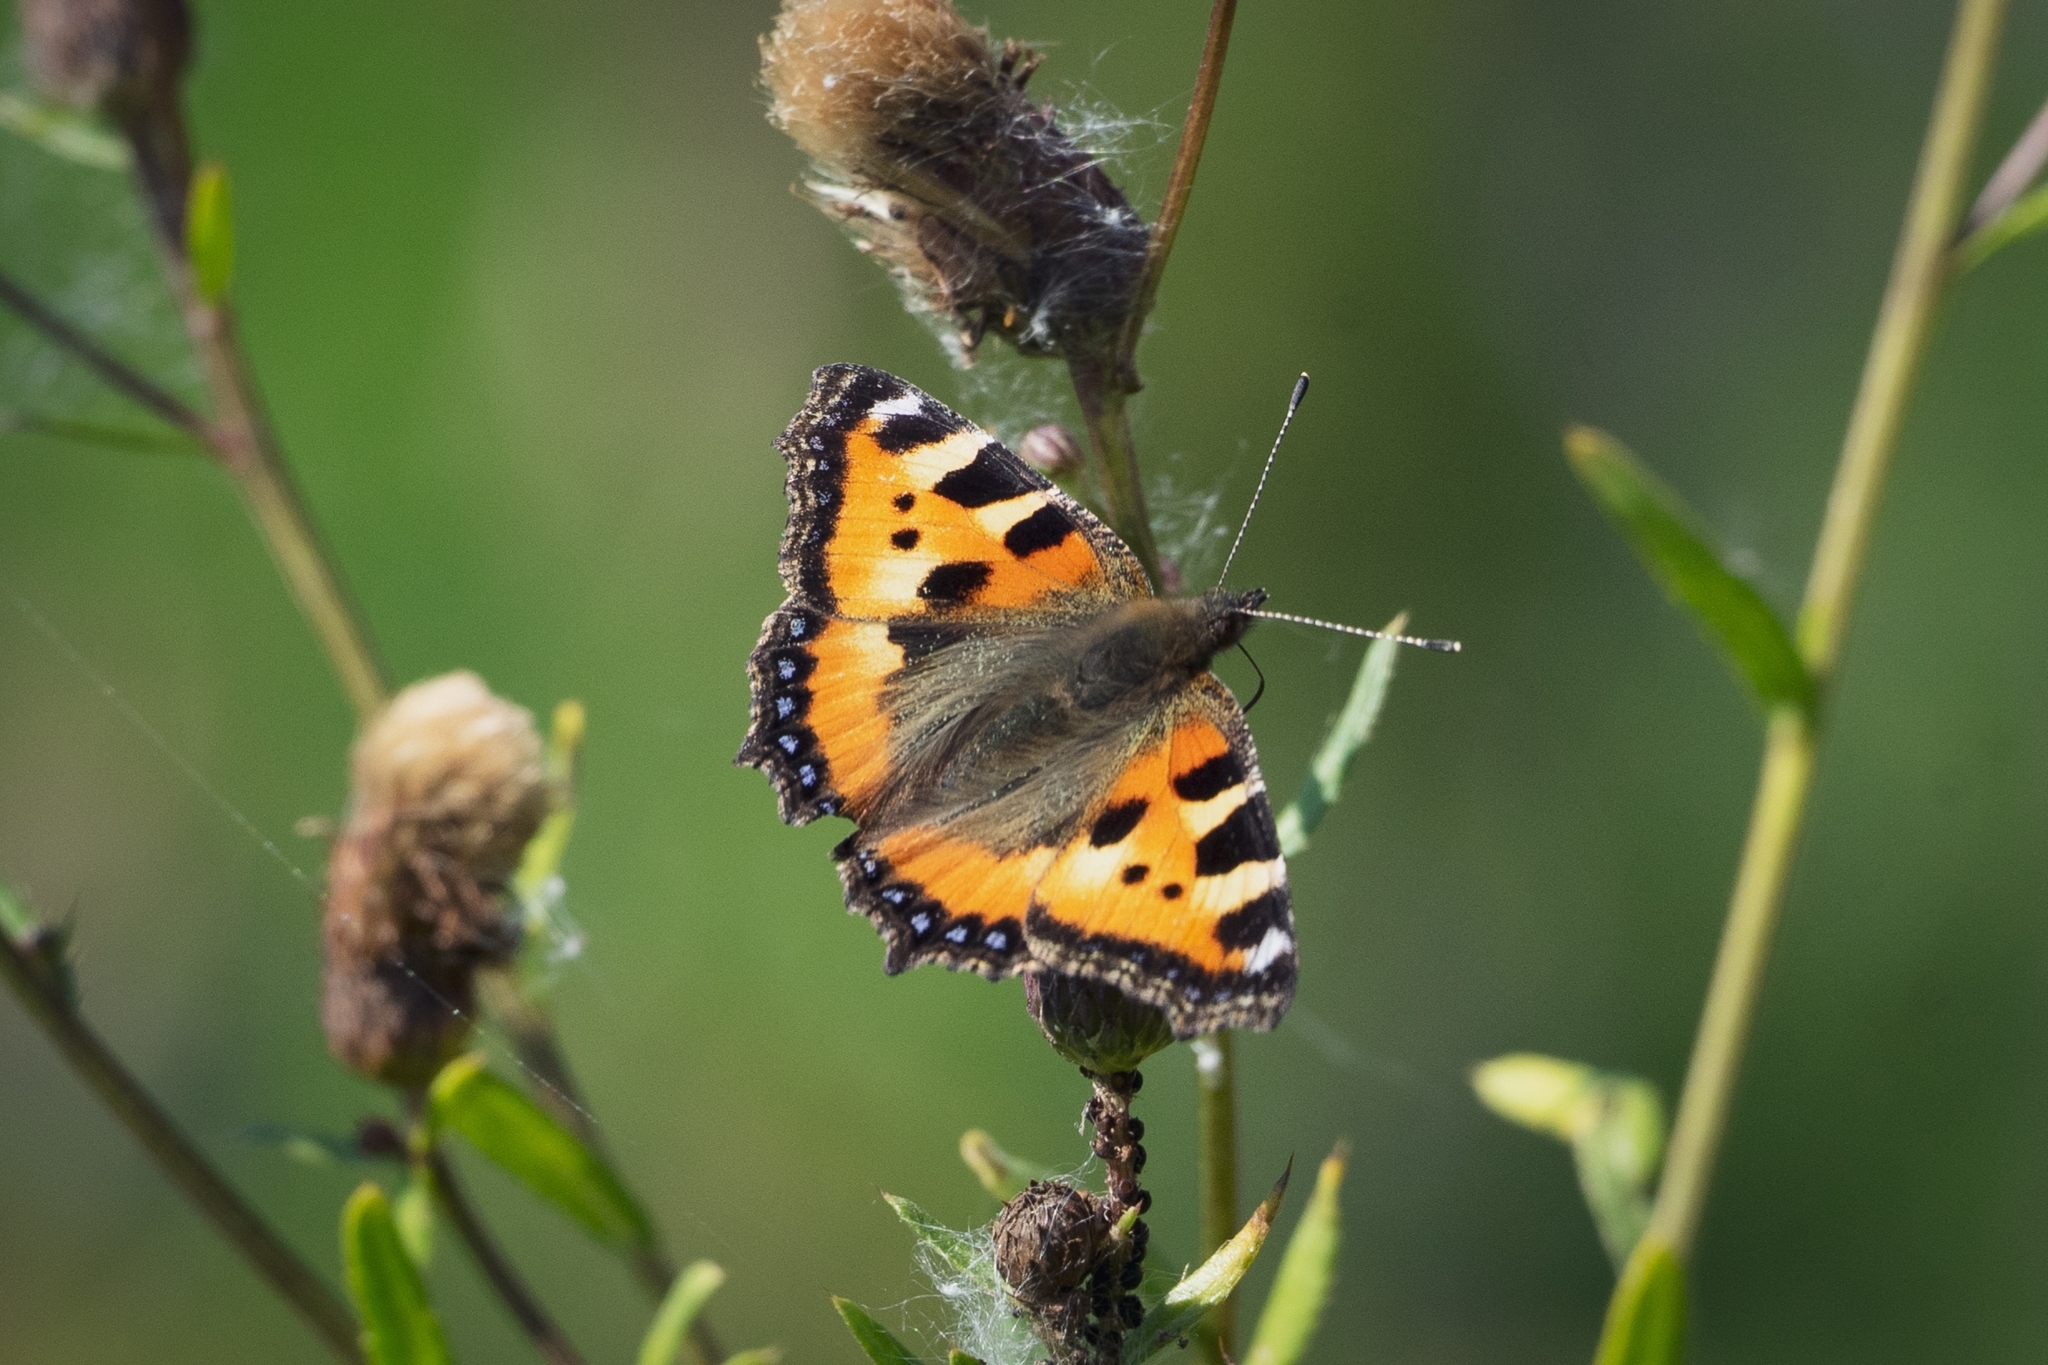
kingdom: Animalia
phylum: Arthropoda
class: Insecta
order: Lepidoptera
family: Nymphalidae
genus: Aglais
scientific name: Aglais urticae
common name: Small tortoiseshell
